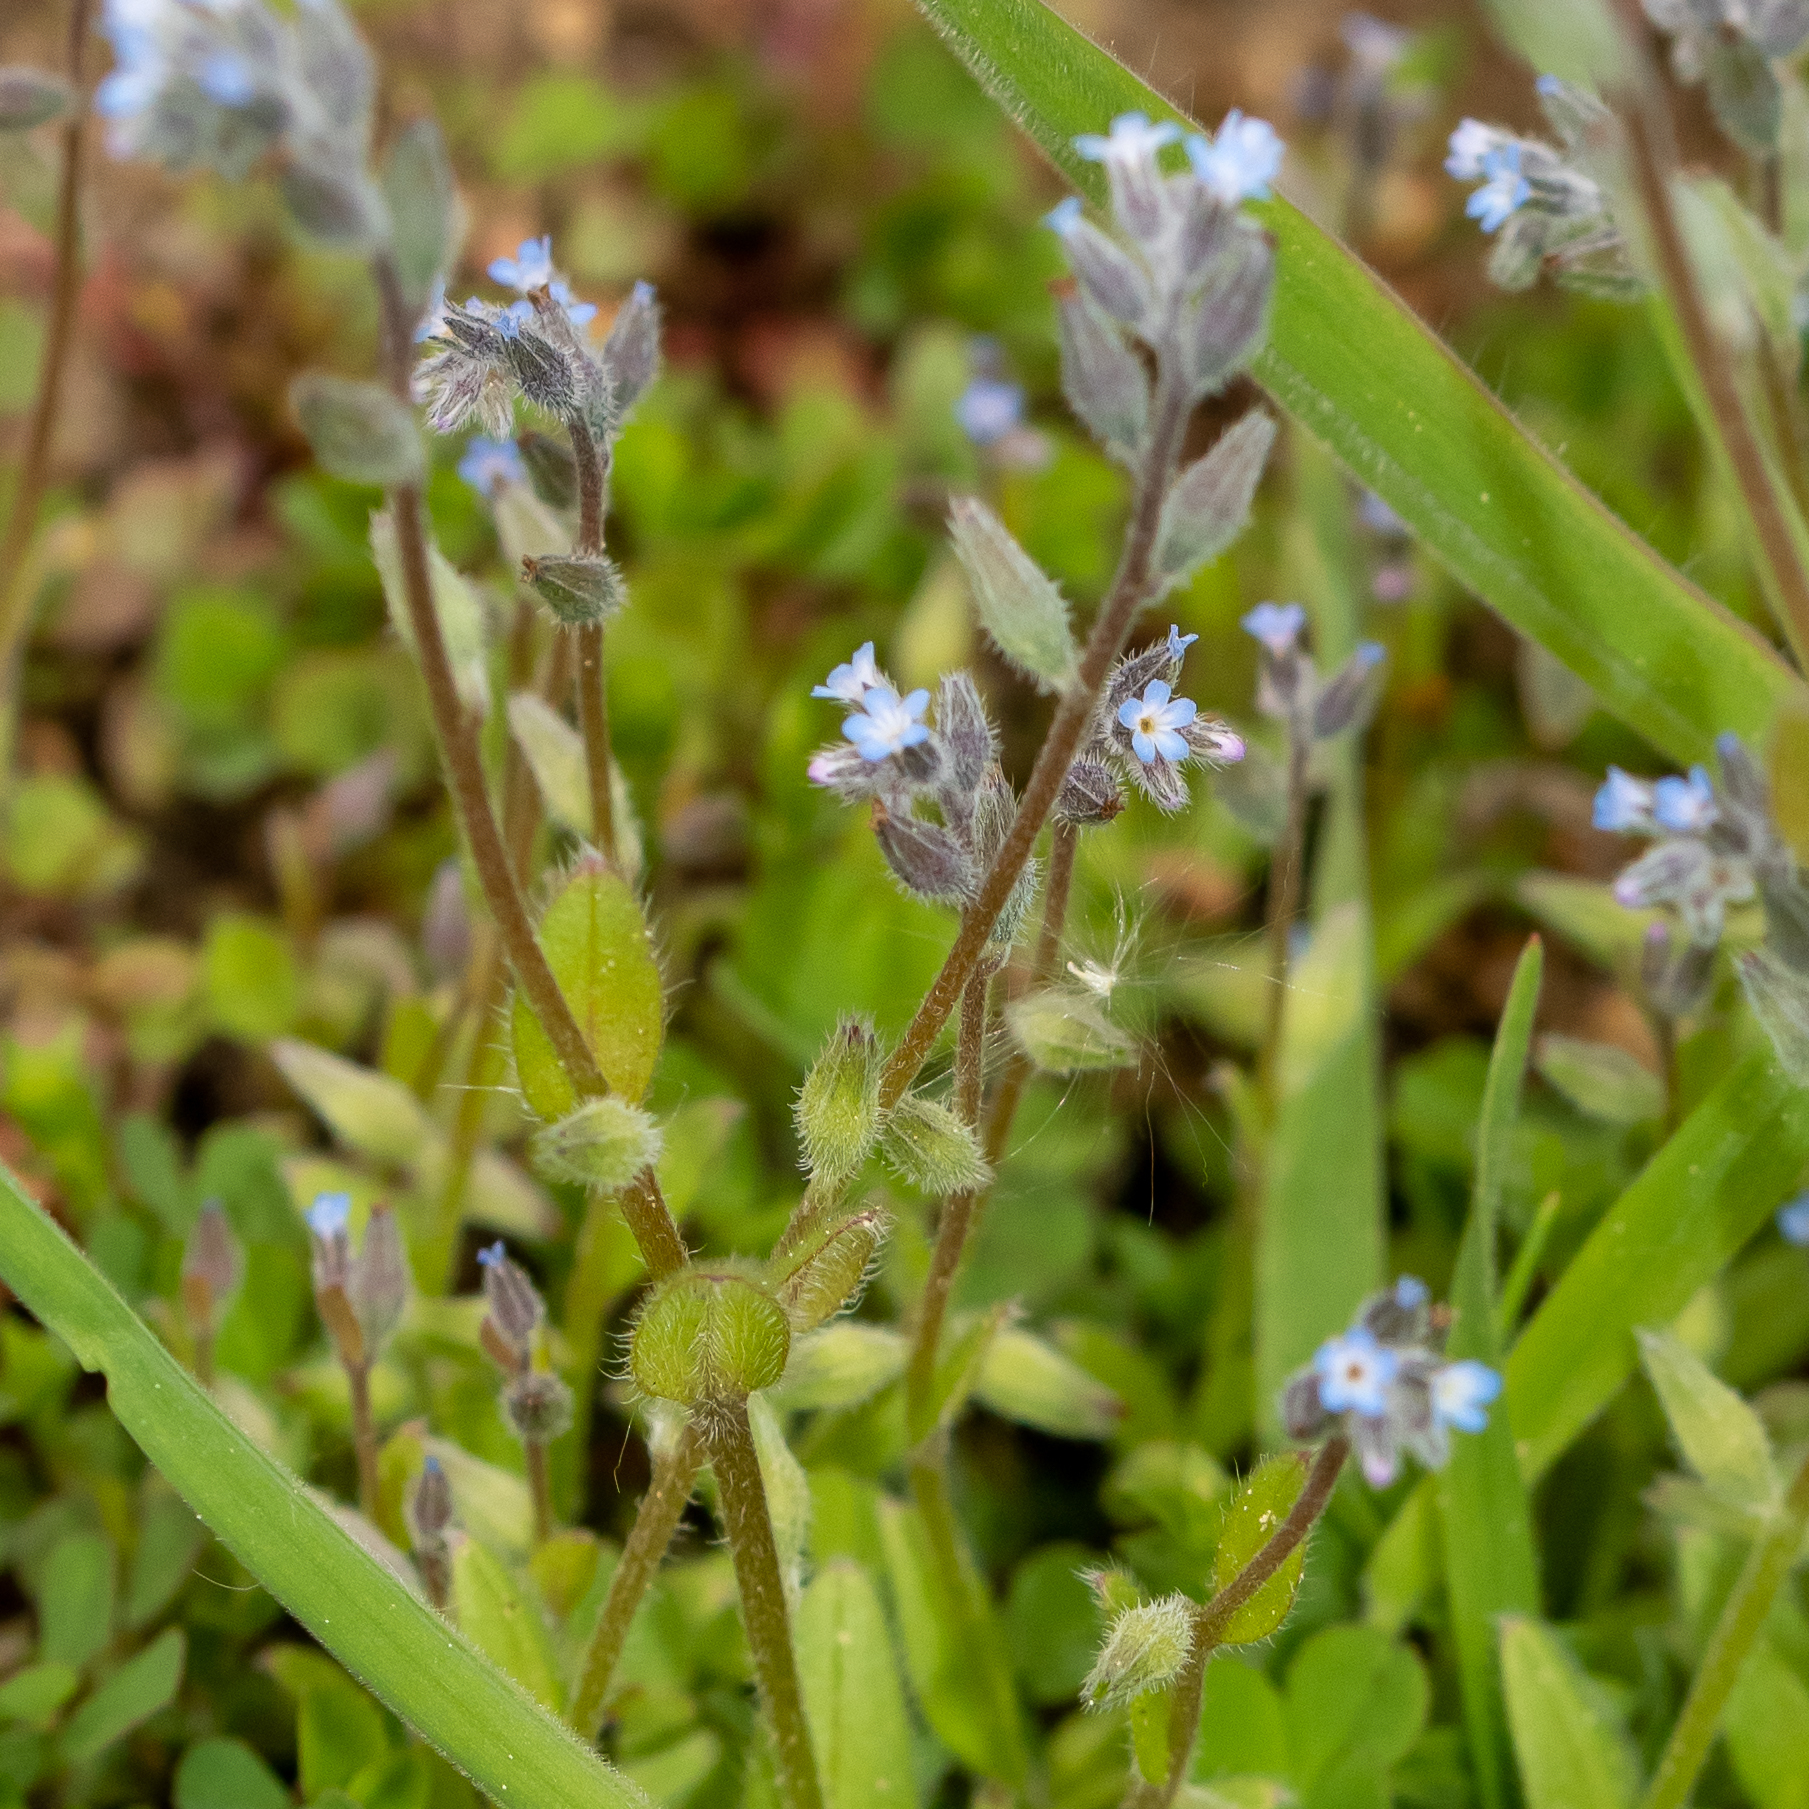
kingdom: Plantae
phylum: Tracheophyta
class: Magnoliopsida
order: Boraginales
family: Boraginaceae
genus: Myosotis
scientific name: Myosotis stricta
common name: Strict forget-me-not
